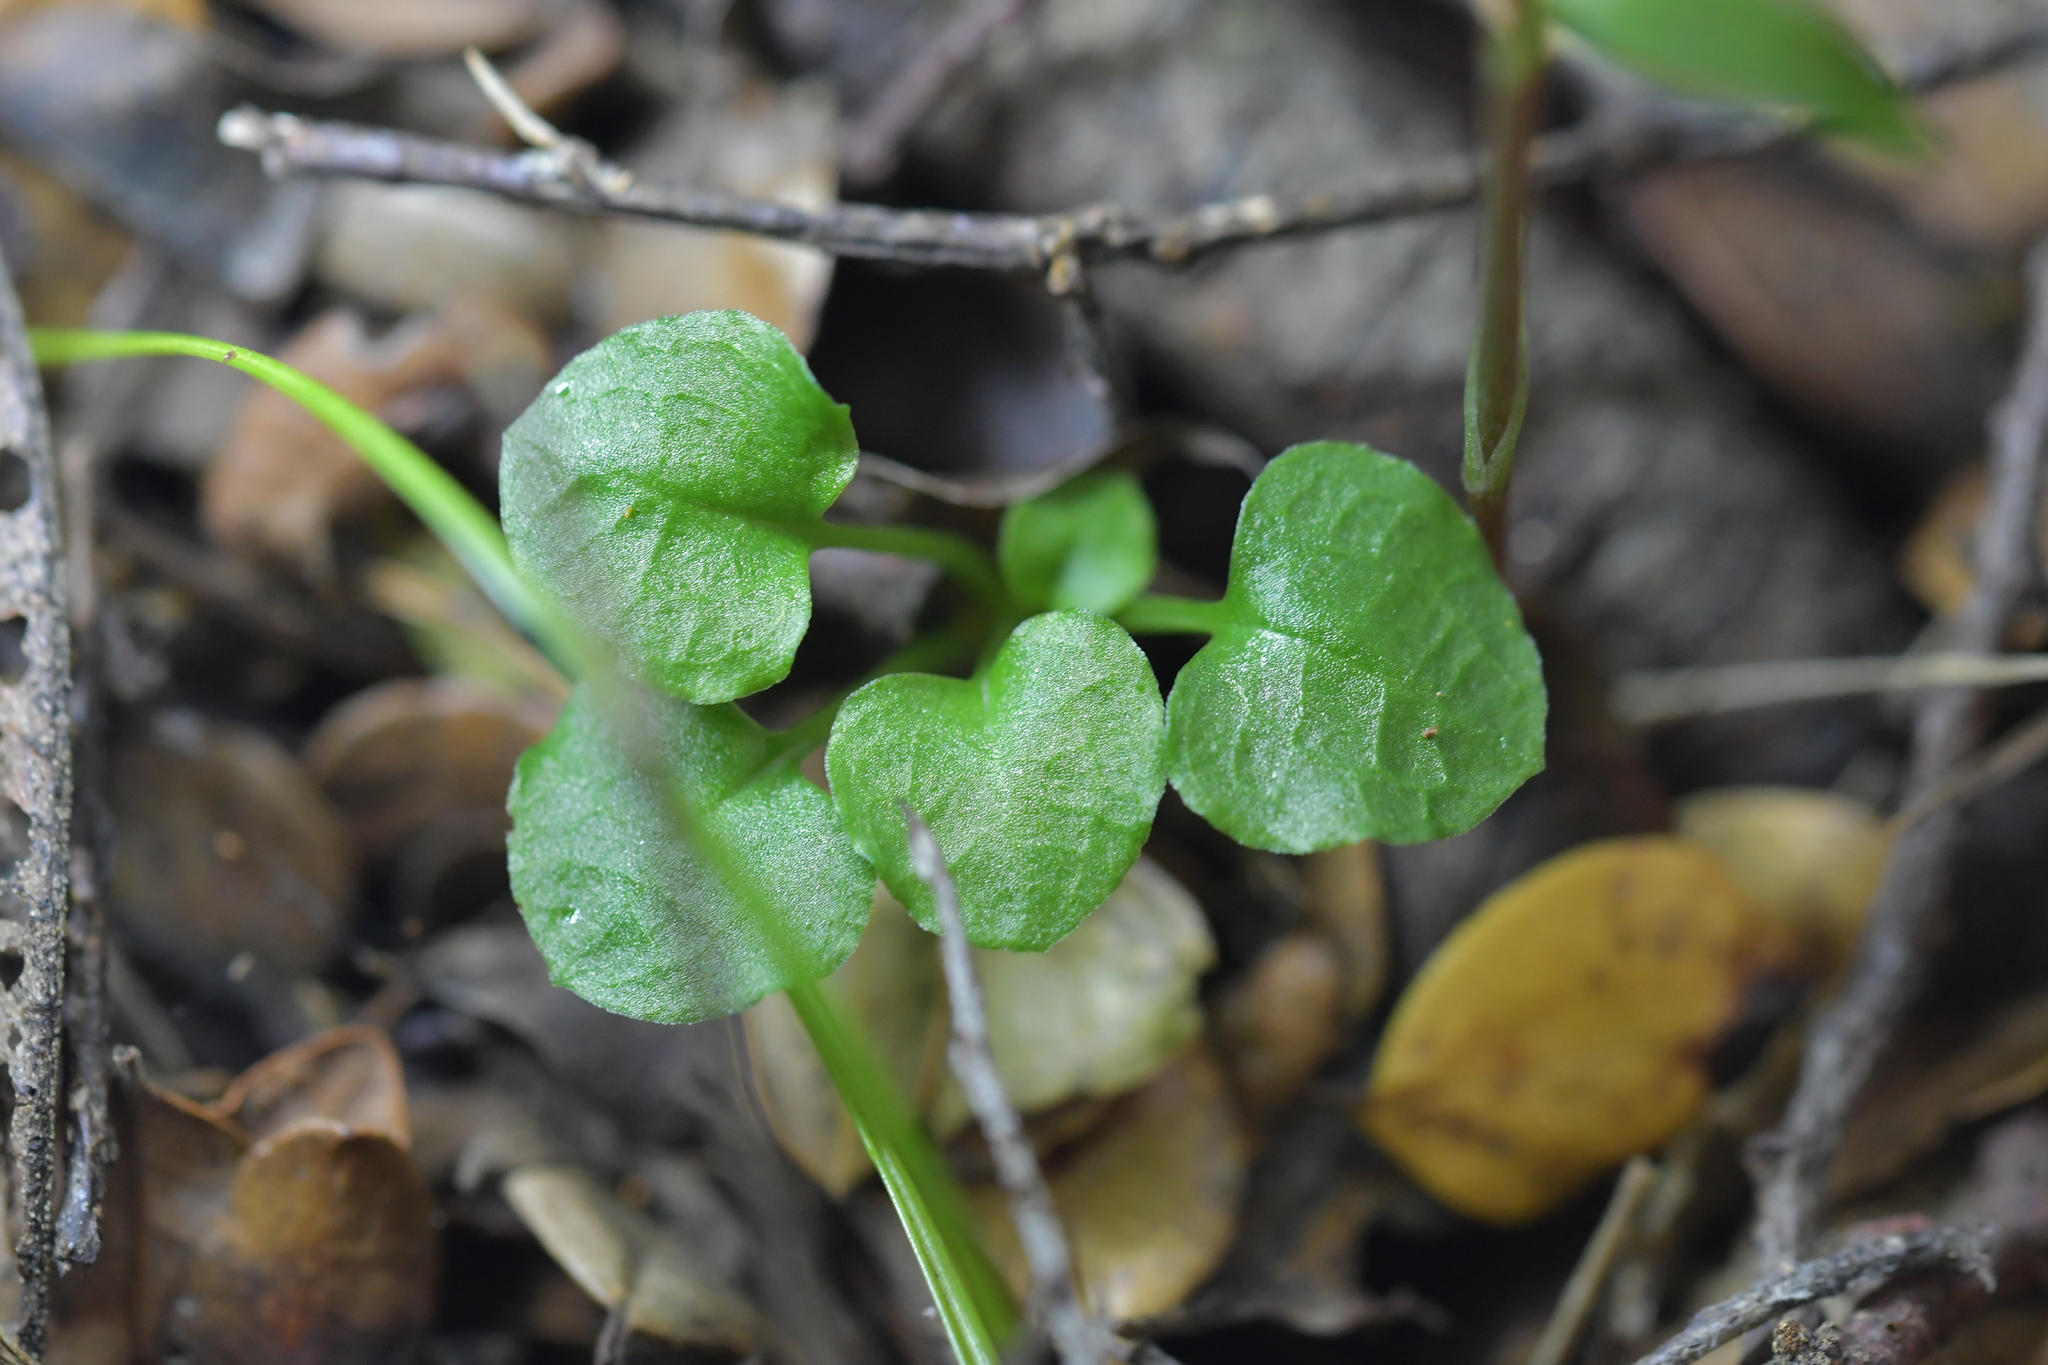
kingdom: Plantae
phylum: Tracheophyta
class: Liliopsida
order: Asparagales
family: Orchidaceae
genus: Pterostylis
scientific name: Pterostylis alobula
